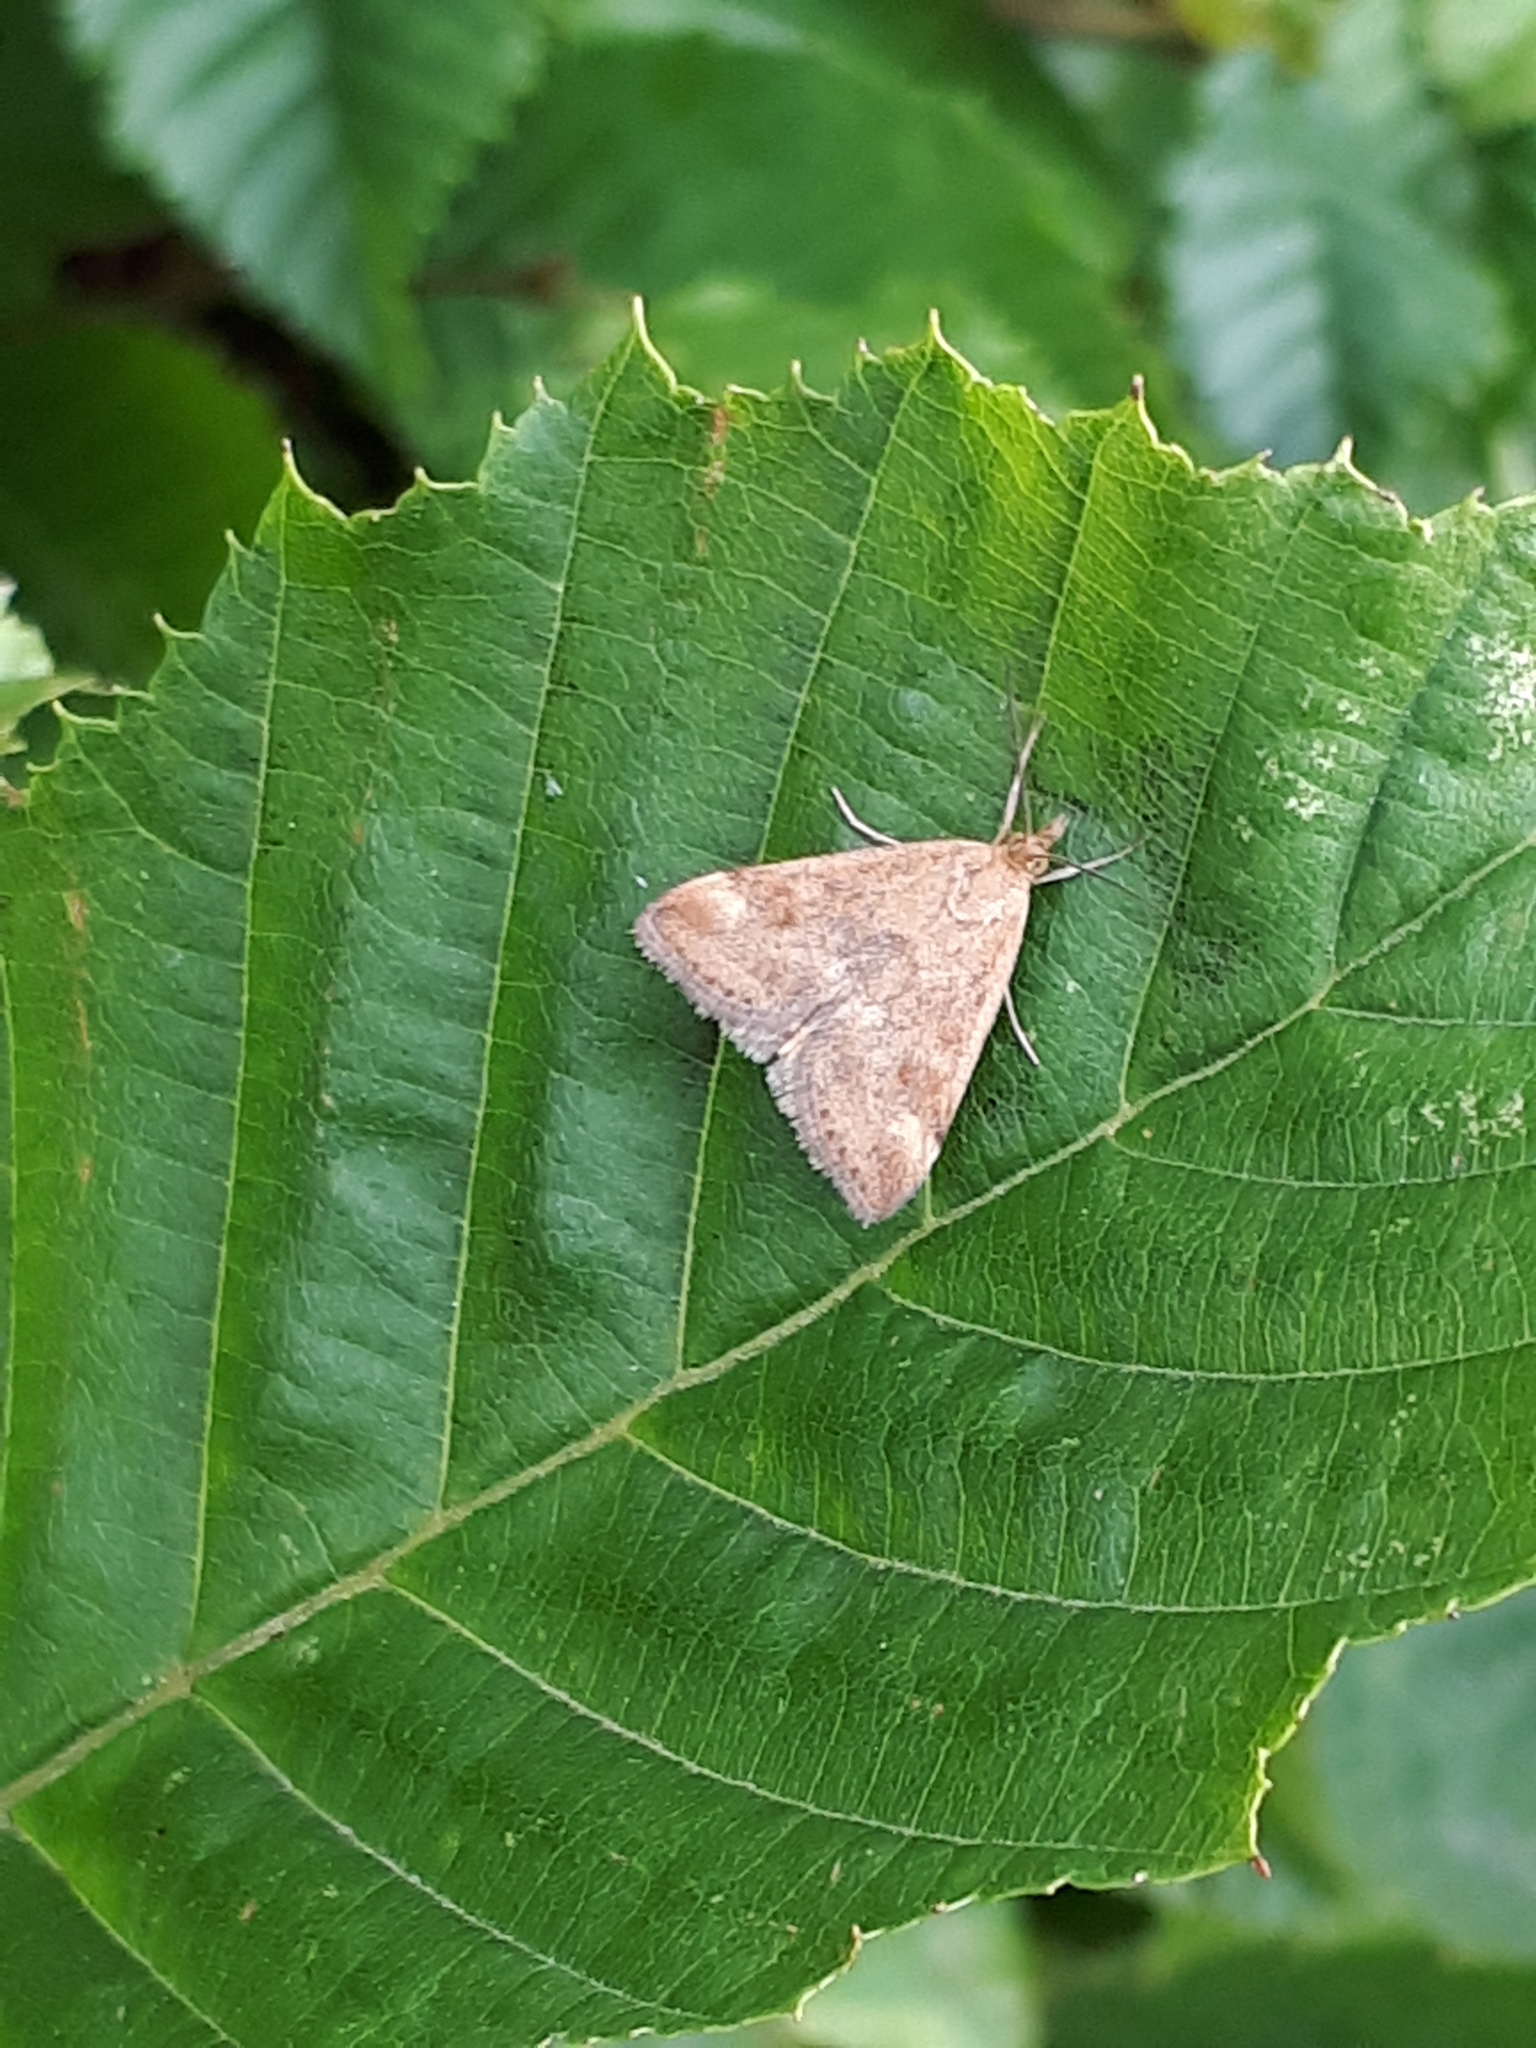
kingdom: Animalia
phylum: Arthropoda
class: Insecta
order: Lepidoptera
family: Crambidae
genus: Pyrausta
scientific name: Pyrausta despicata
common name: Straw-barred pearl
